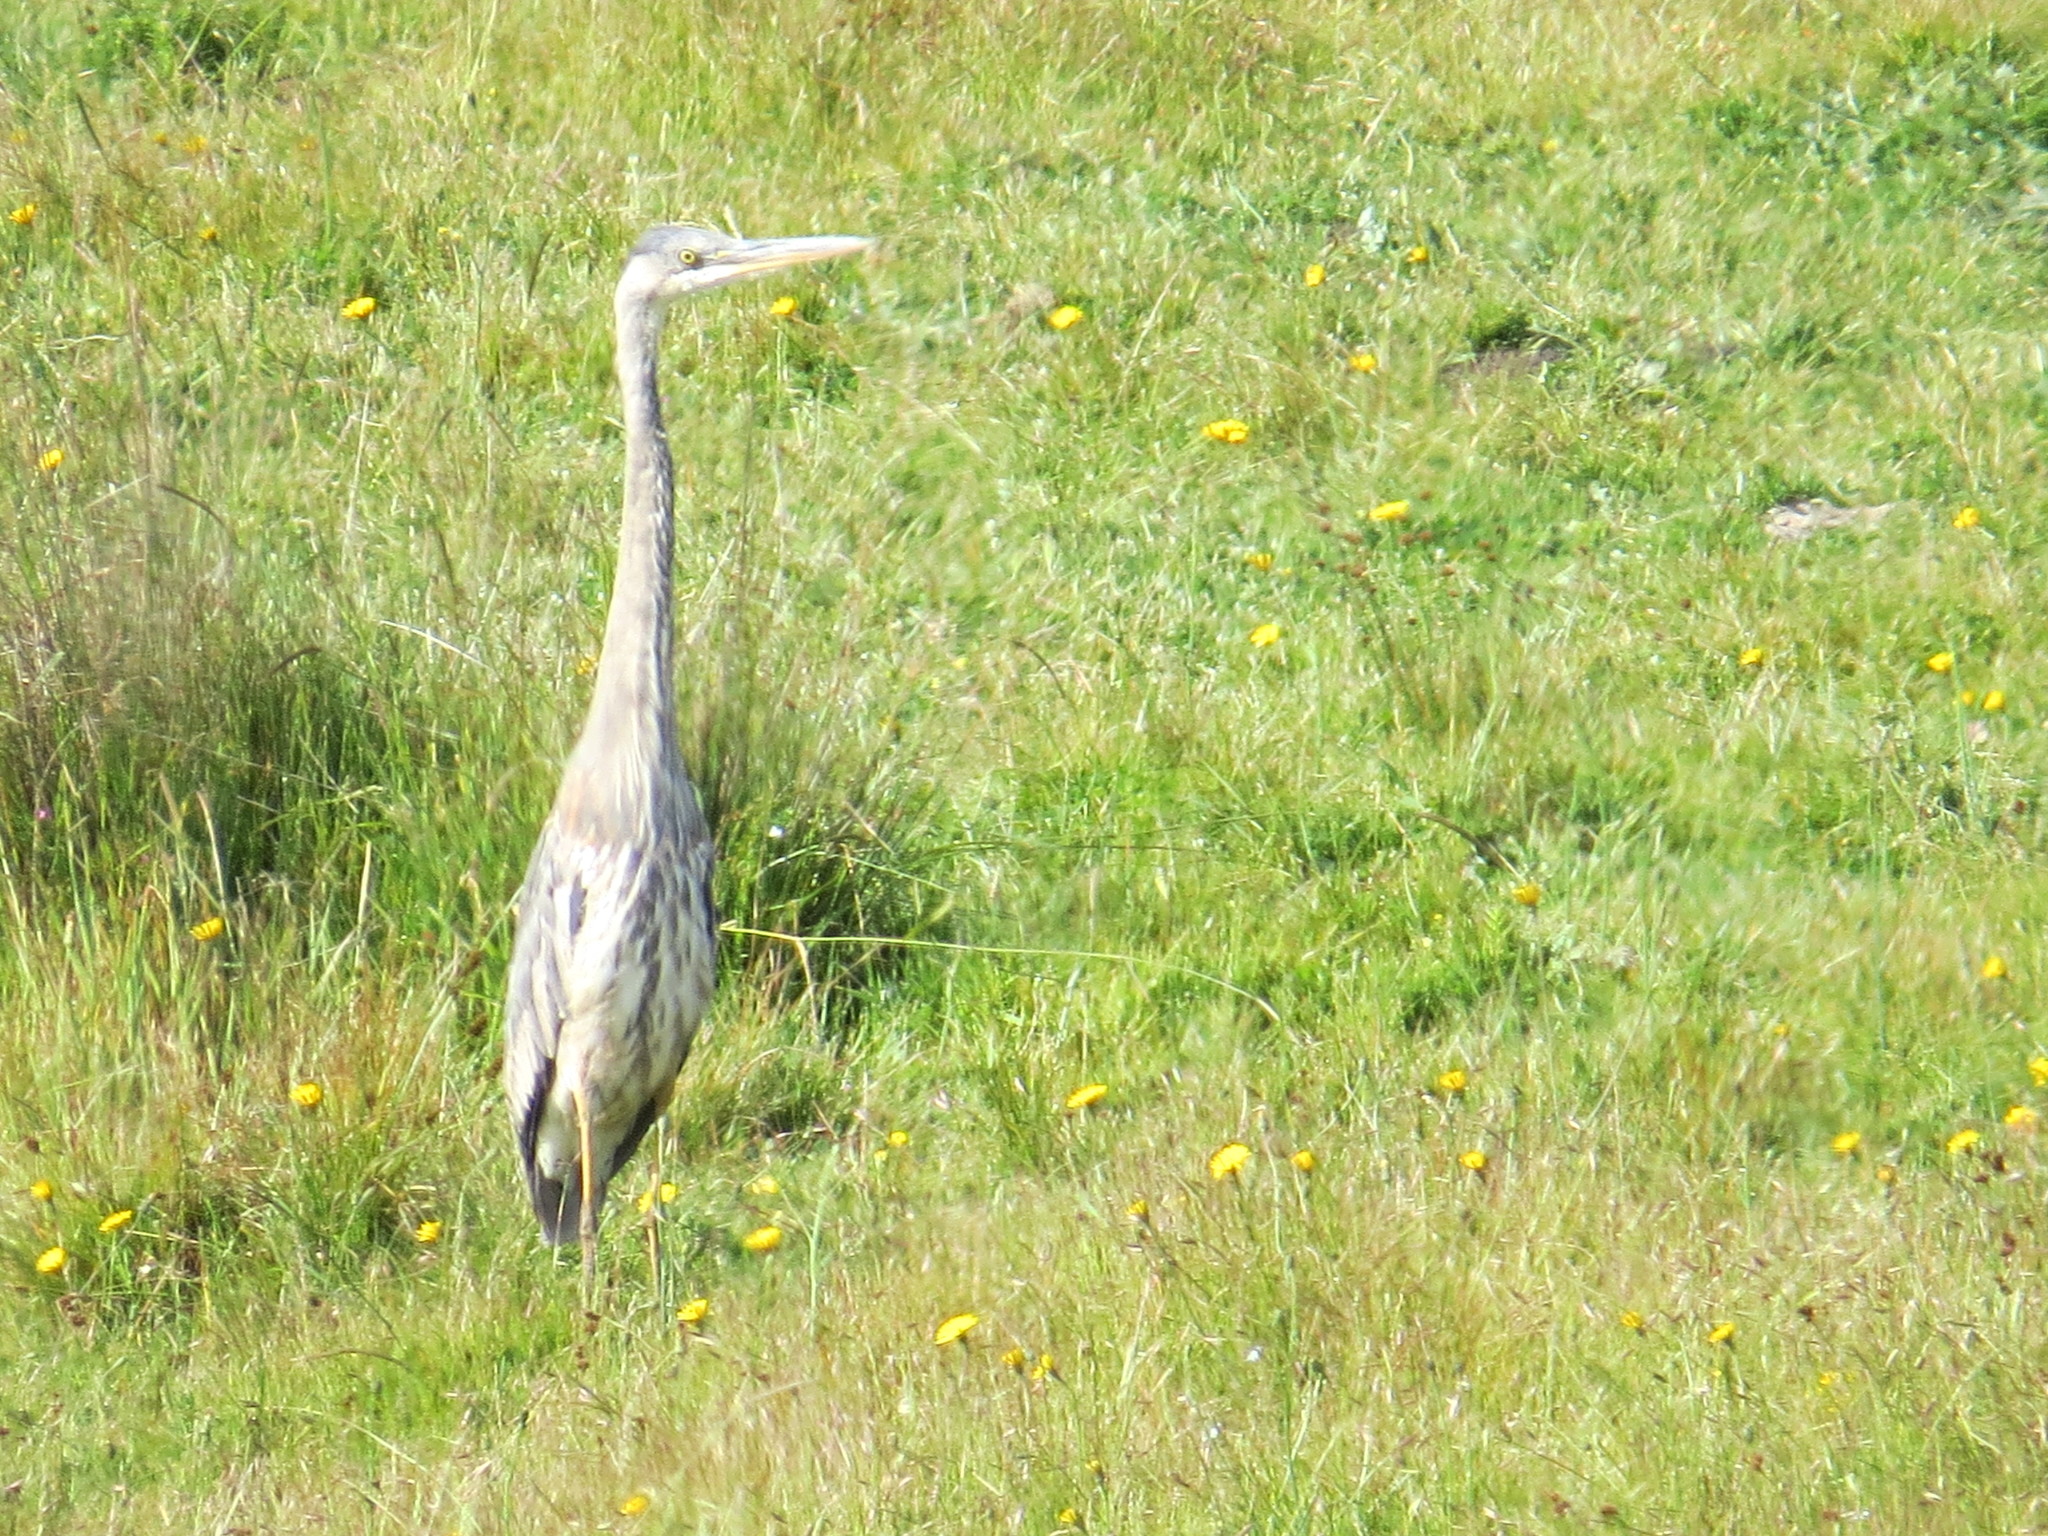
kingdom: Animalia
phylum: Chordata
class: Aves
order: Pelecaniformes
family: Ardeidae
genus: Ardea
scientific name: Ardea herodias
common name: Great blue heron
